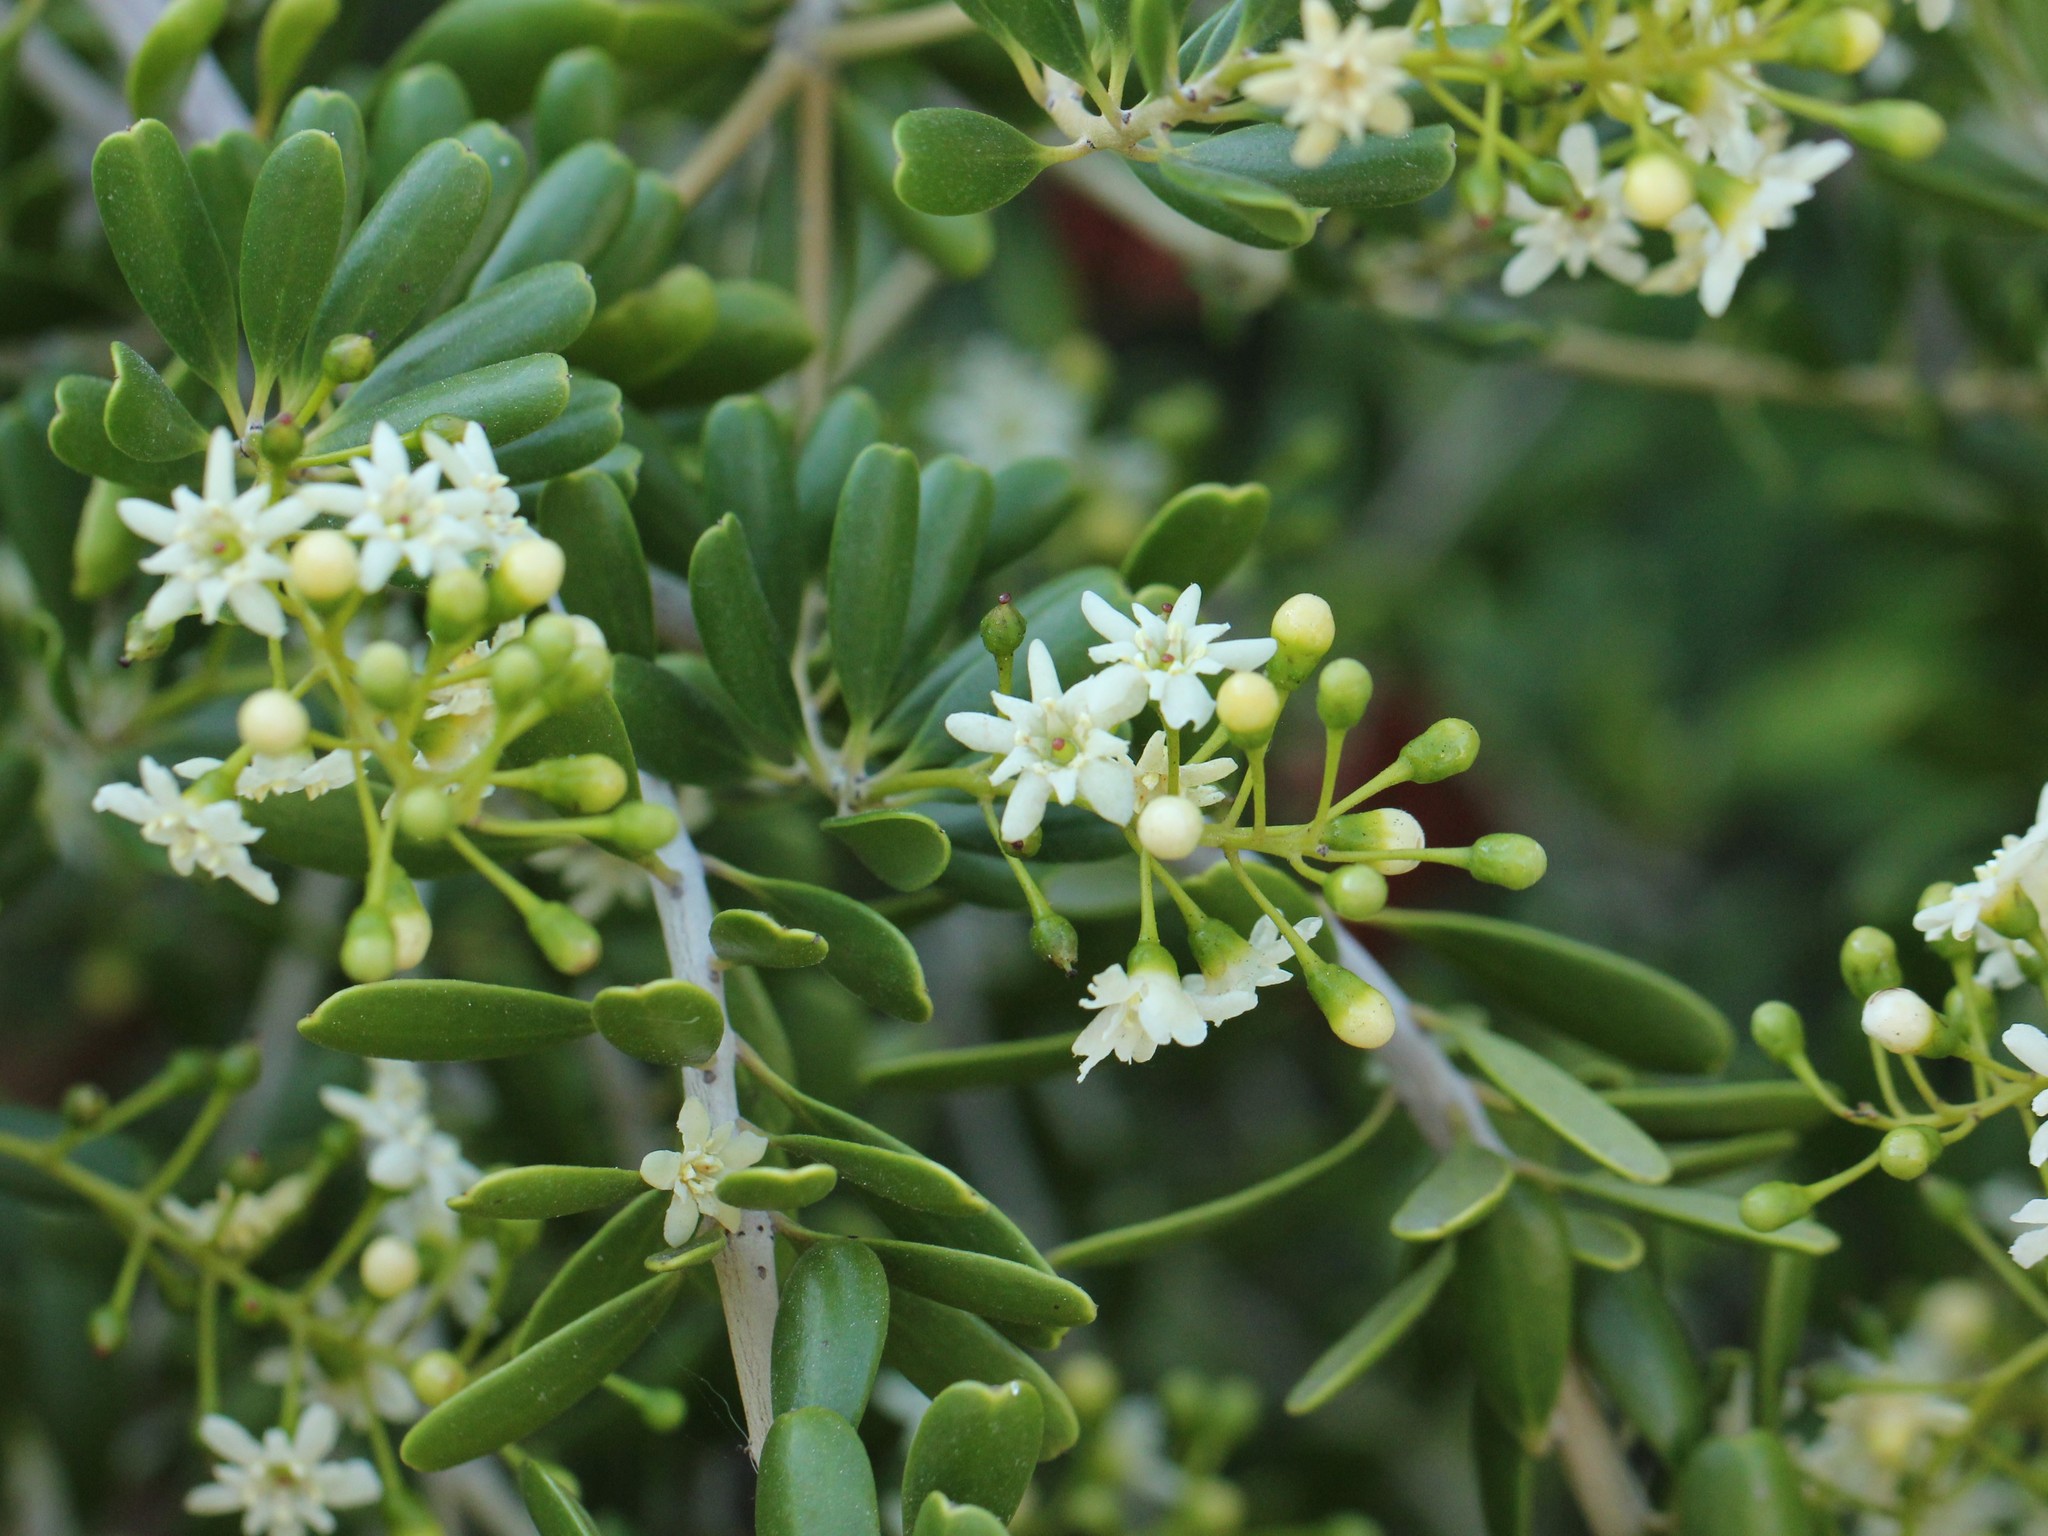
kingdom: Plantae
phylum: Tracheophyta
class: Magnoliopsida
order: Ericales
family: Primulaceae
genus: Jacquinia
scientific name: Jacquinia keyensis
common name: Joebush
